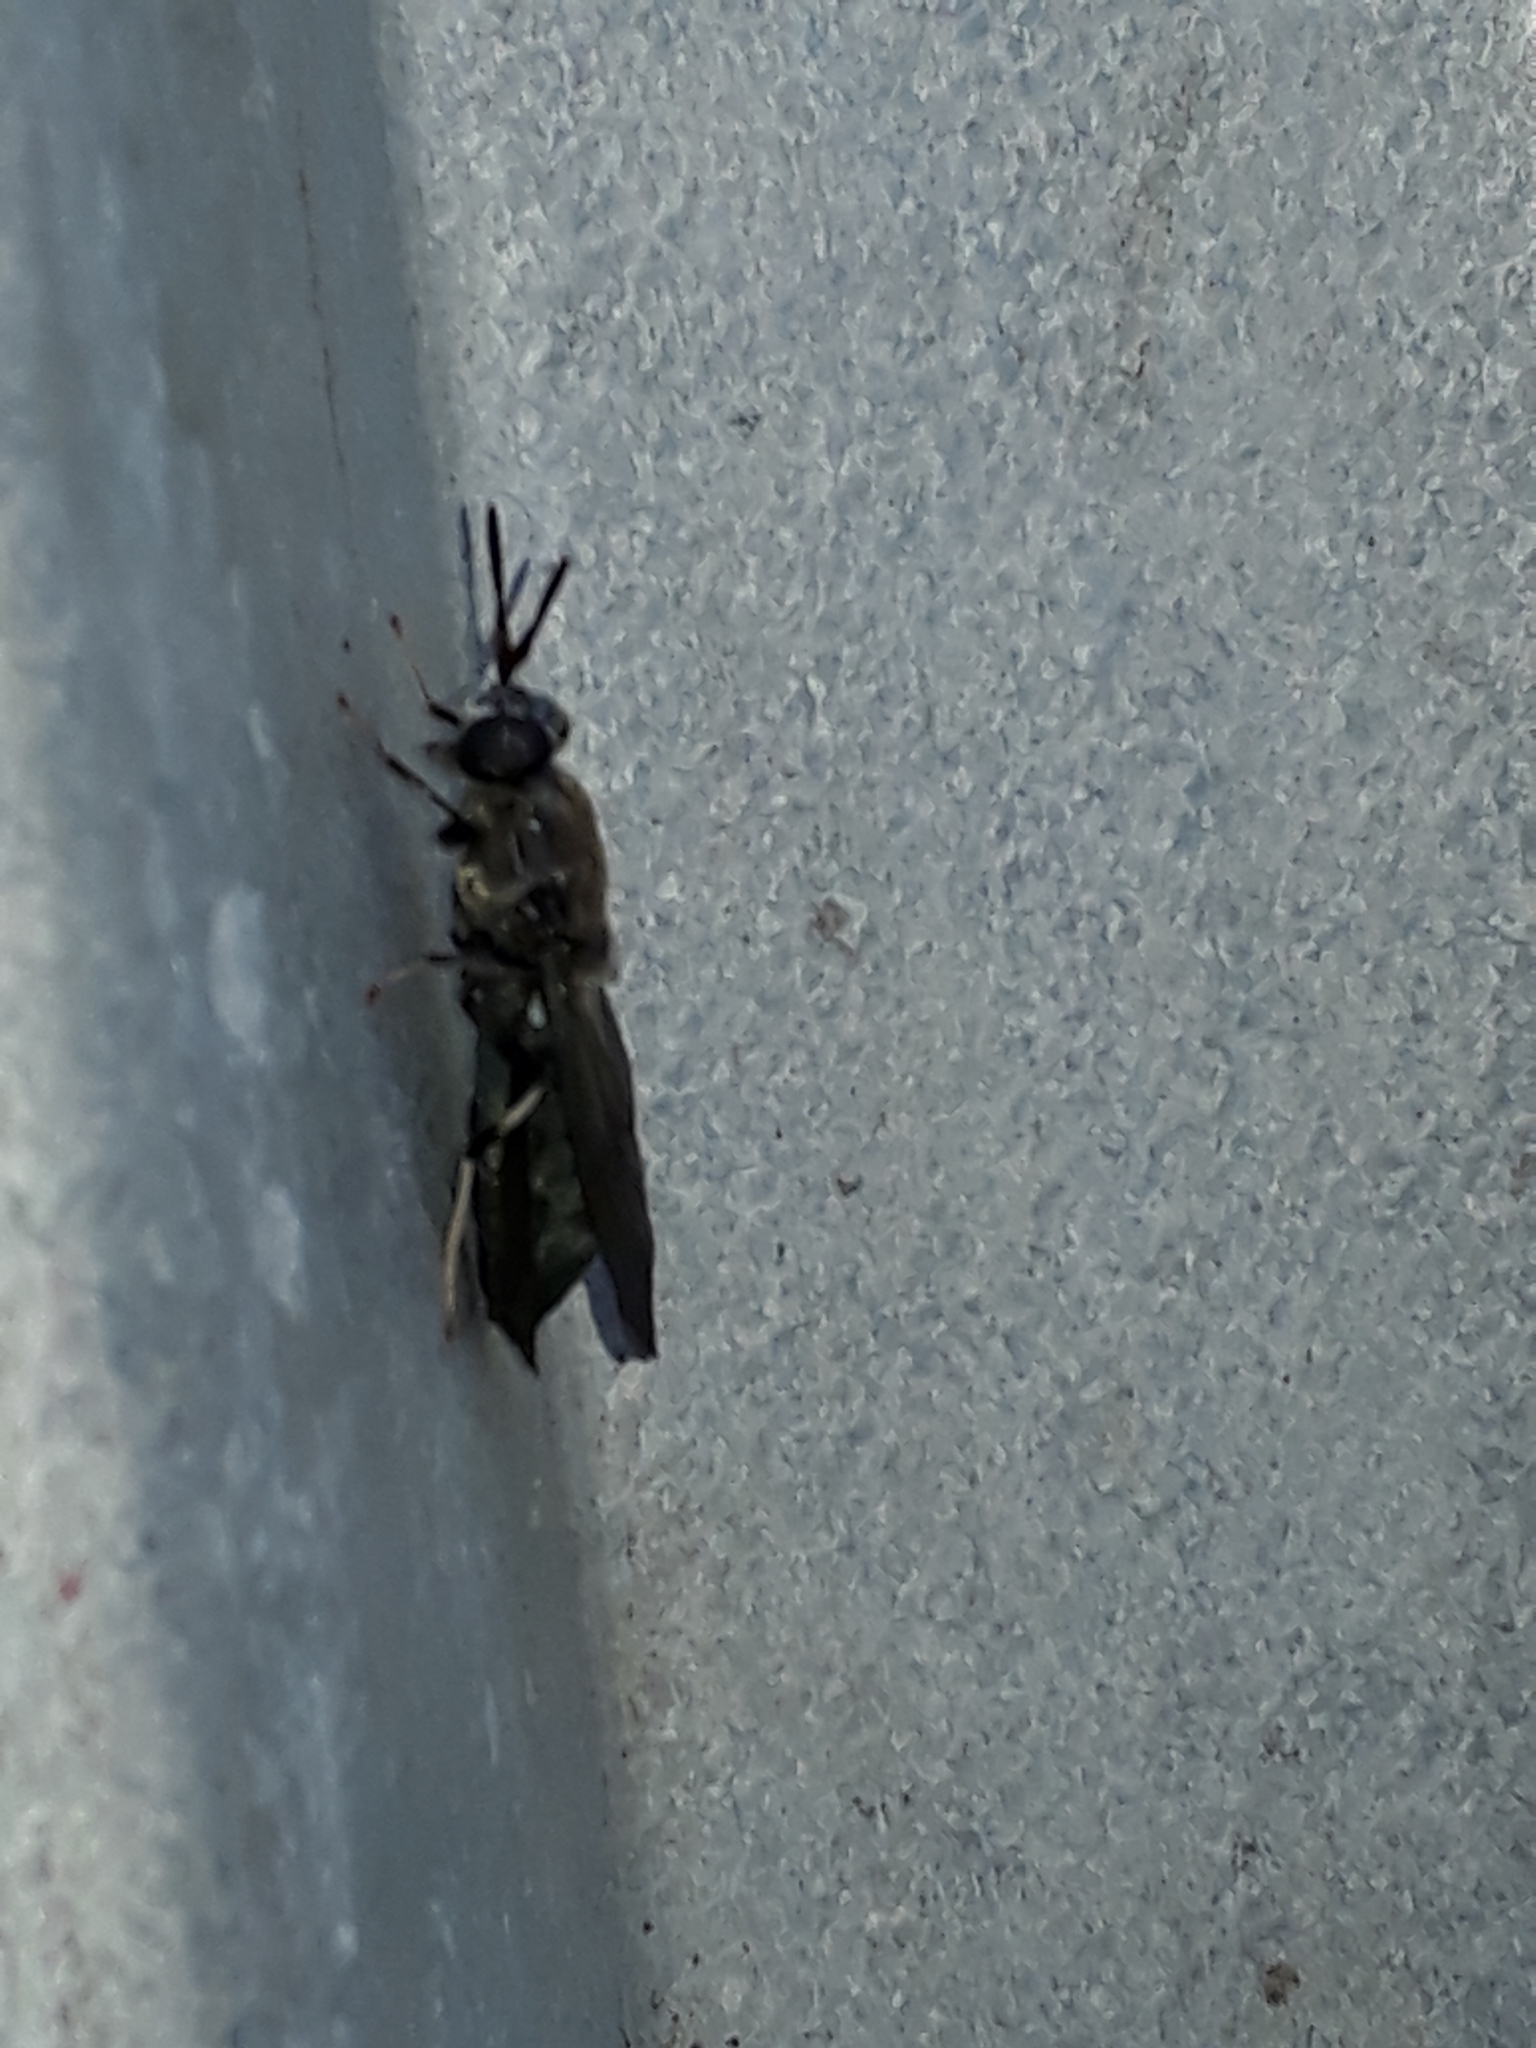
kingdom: Animalia
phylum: Arthropoda
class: Insecta
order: Diptera
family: Stratiomyidae
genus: Hermetia
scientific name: Hermetia illucens
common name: Black soldier fly
